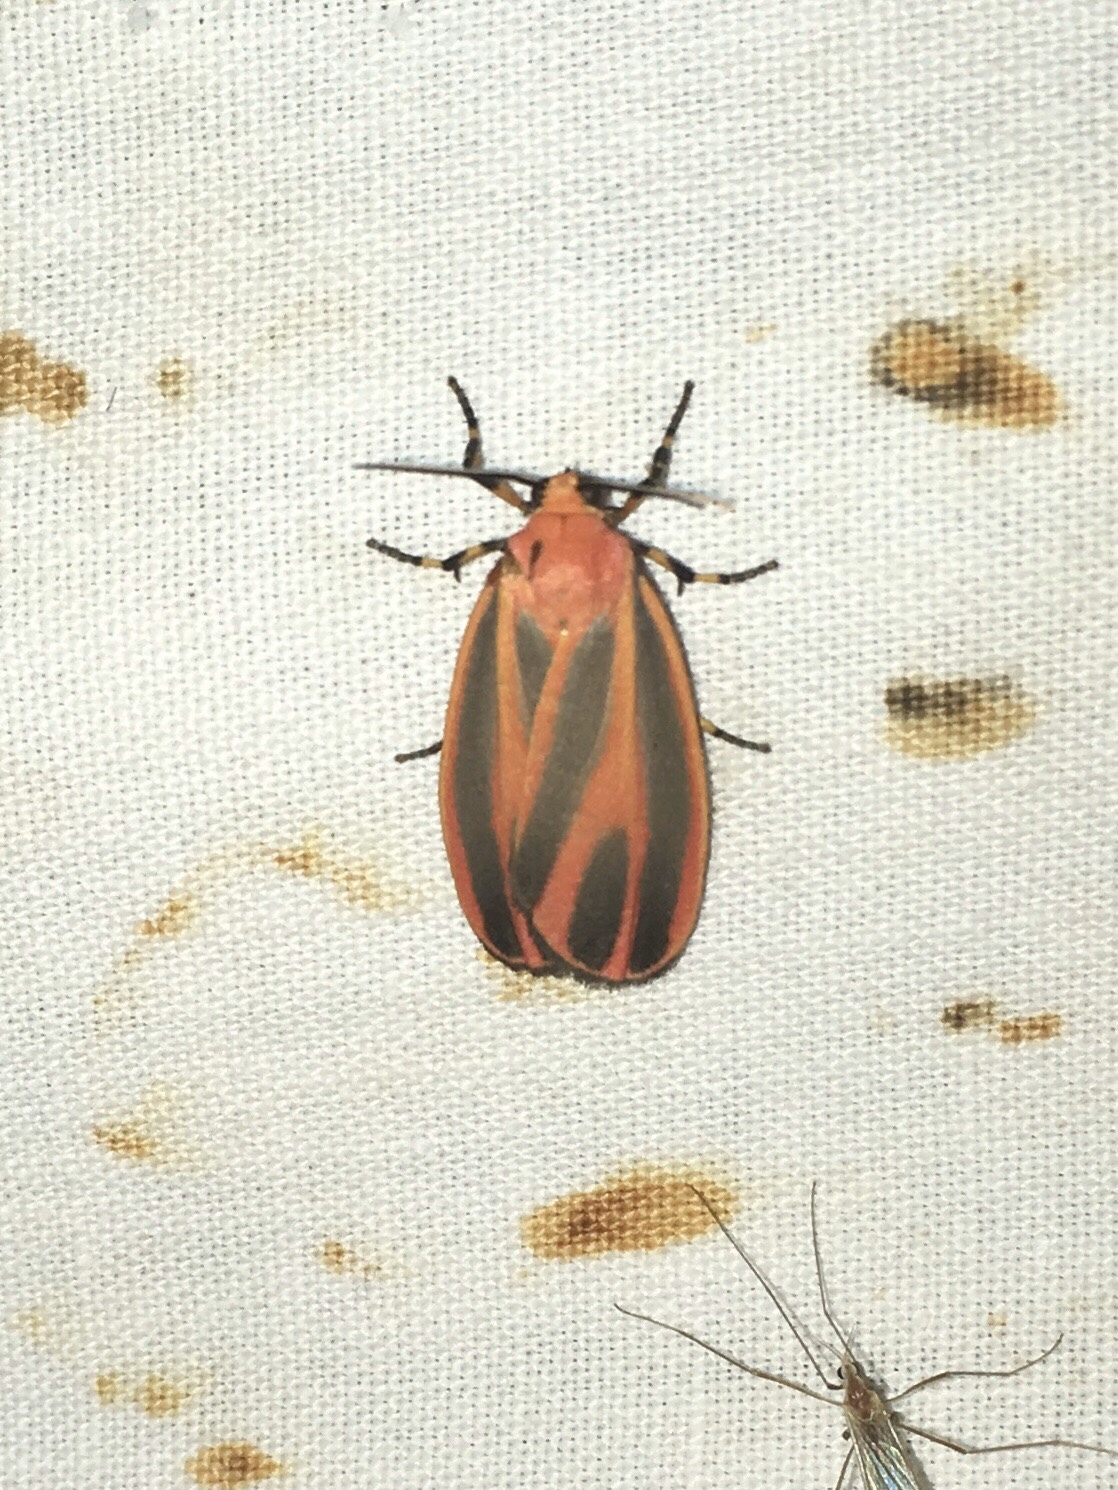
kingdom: Animalia
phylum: Arthropoda
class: Insecta
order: Lepidoptera
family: Erebidae
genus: Hypoprepia
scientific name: Hypoprepia miniata
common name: Scarlet-winged lichen moth
